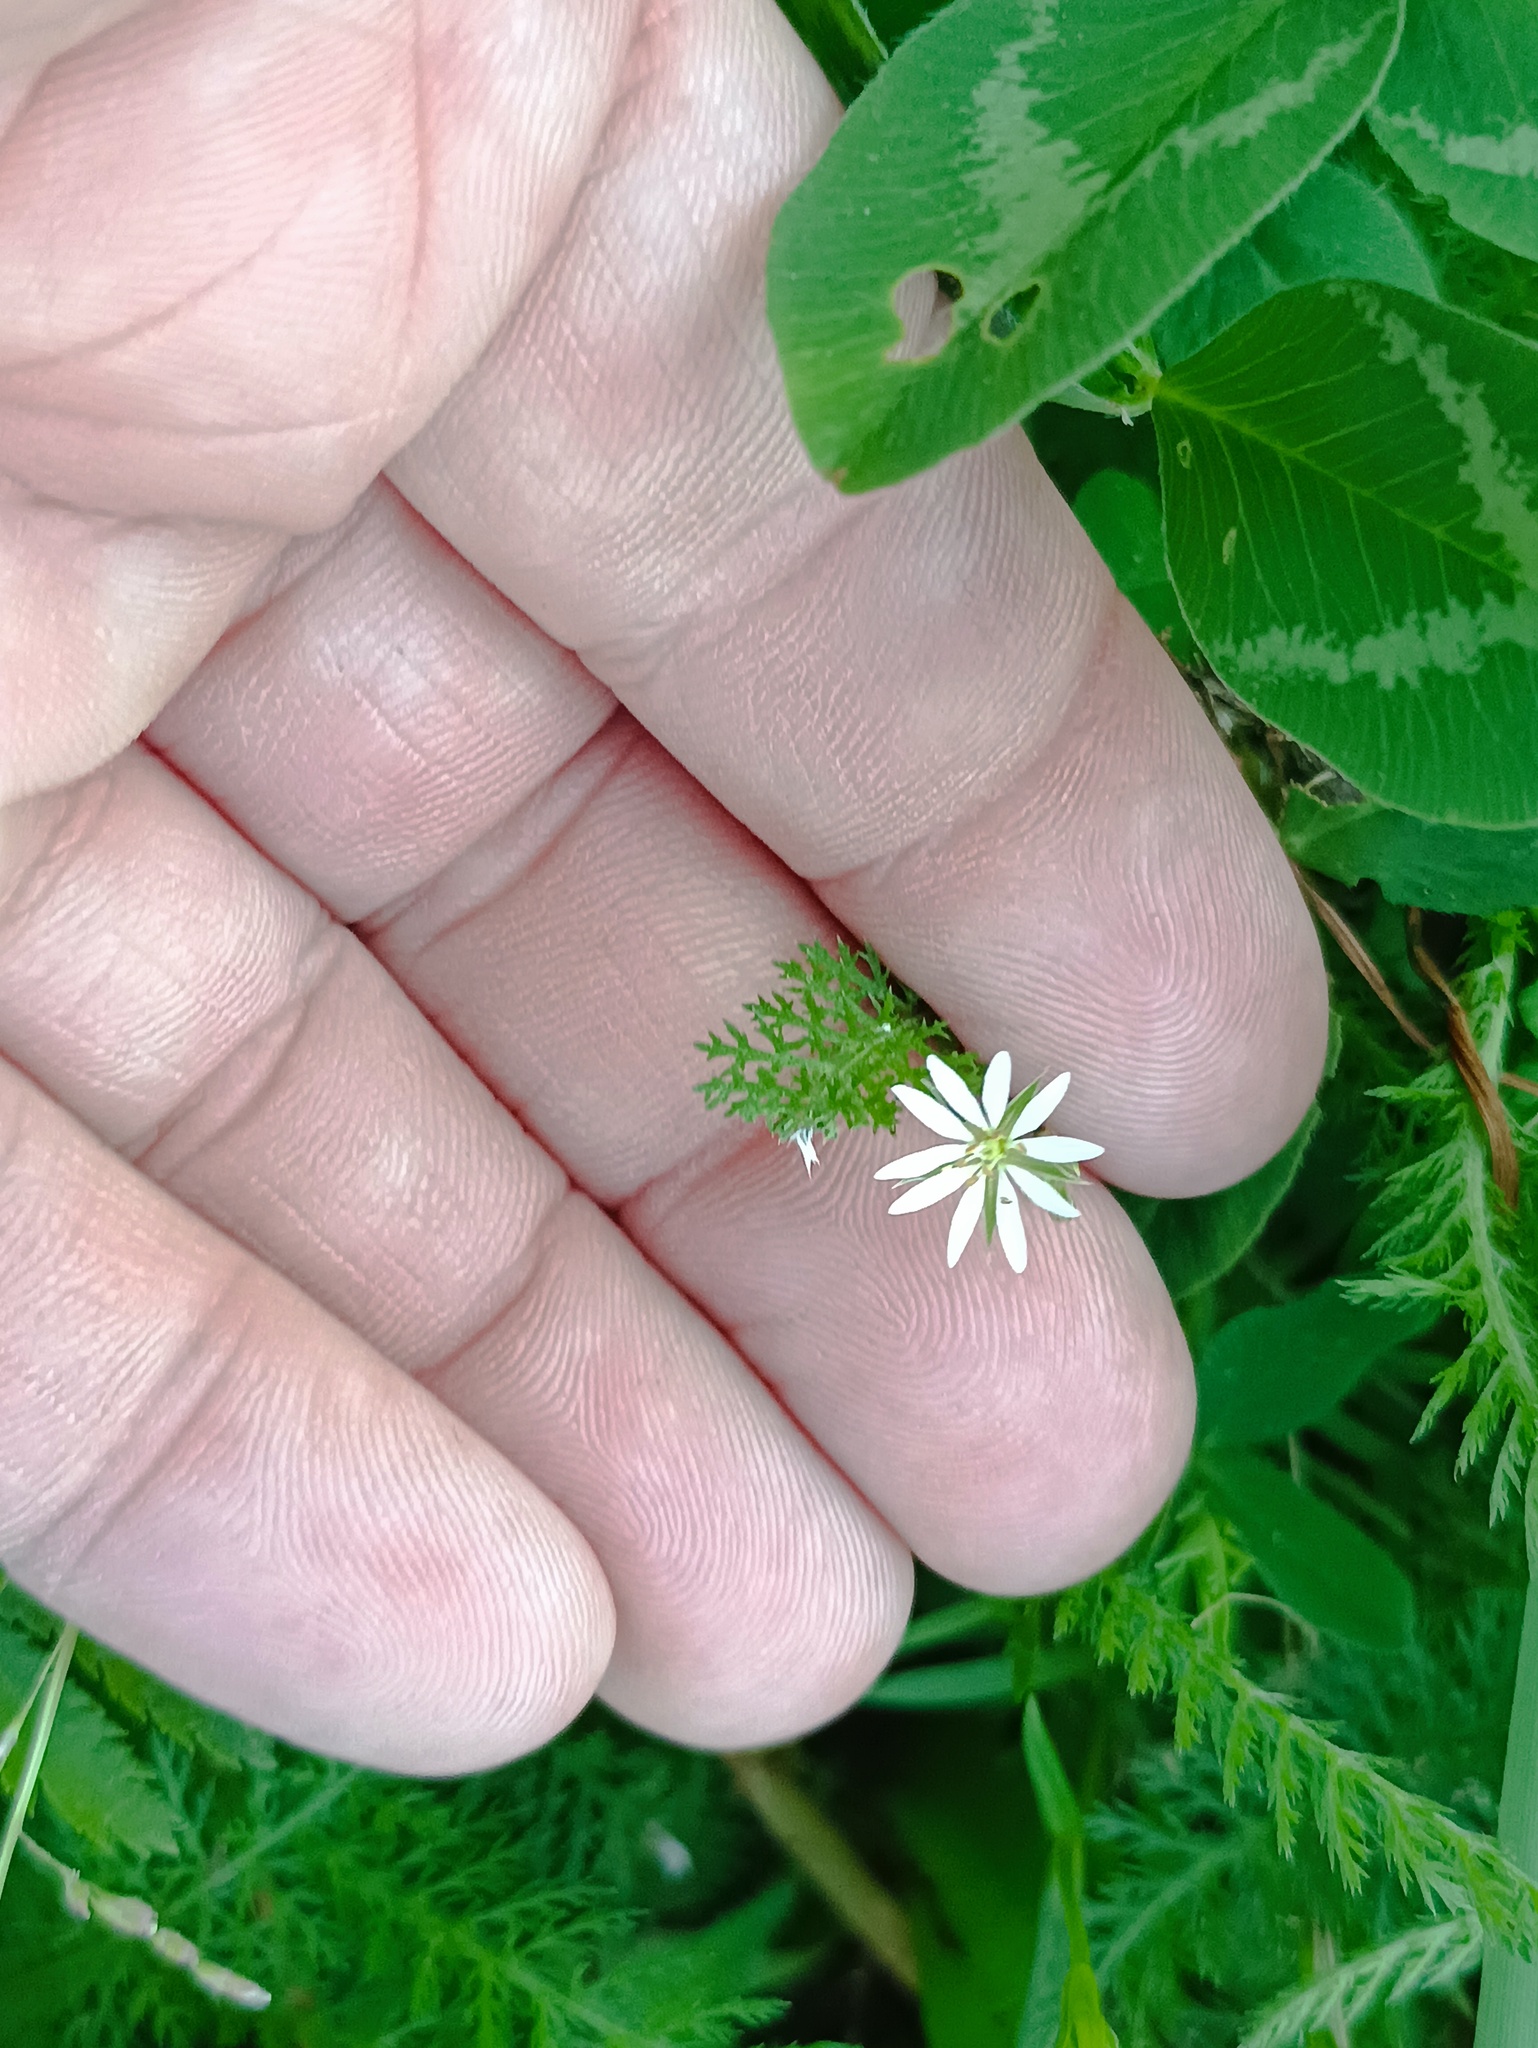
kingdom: Plantae
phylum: Tracheophyta
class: Magnoliopsida
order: Caryophyllales
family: Caryophyllaceae
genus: Stellaria
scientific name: Stellaria graminea
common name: Grass-like starwort
